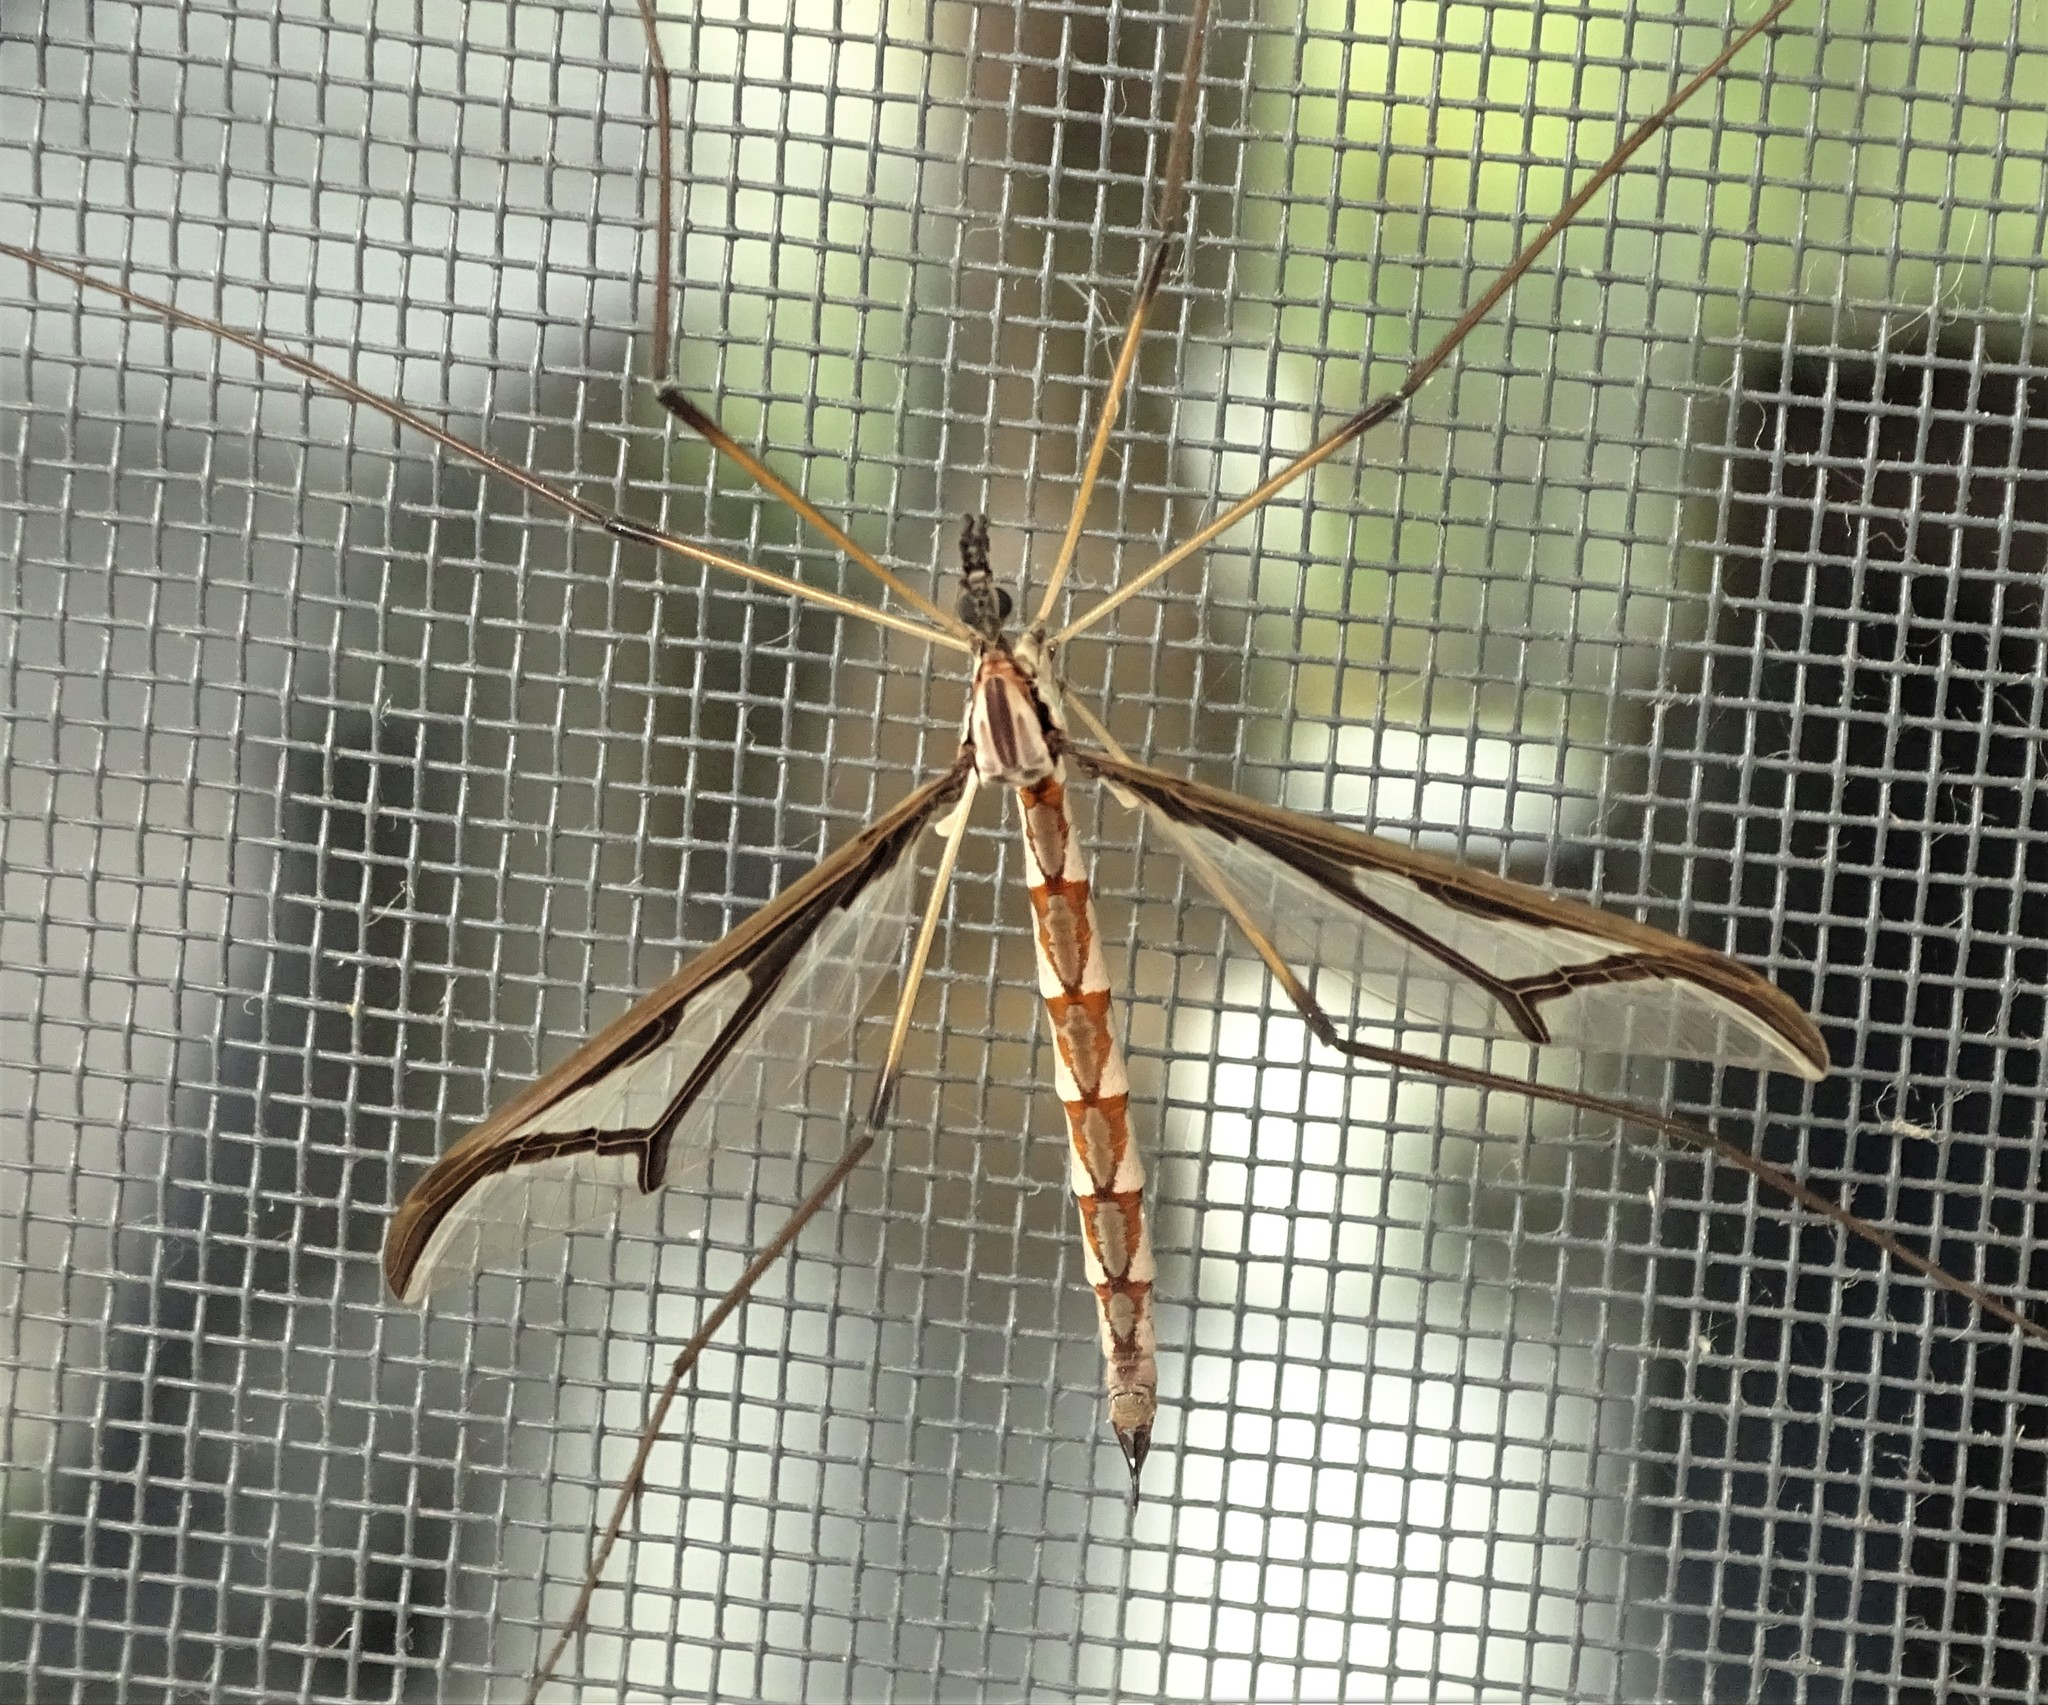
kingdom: Animalia
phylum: Arthropoda
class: Insecta
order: Diptera
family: Pediciidae
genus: Pedicia
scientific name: Pedicia albivitta
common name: Giant eastern crane fly
